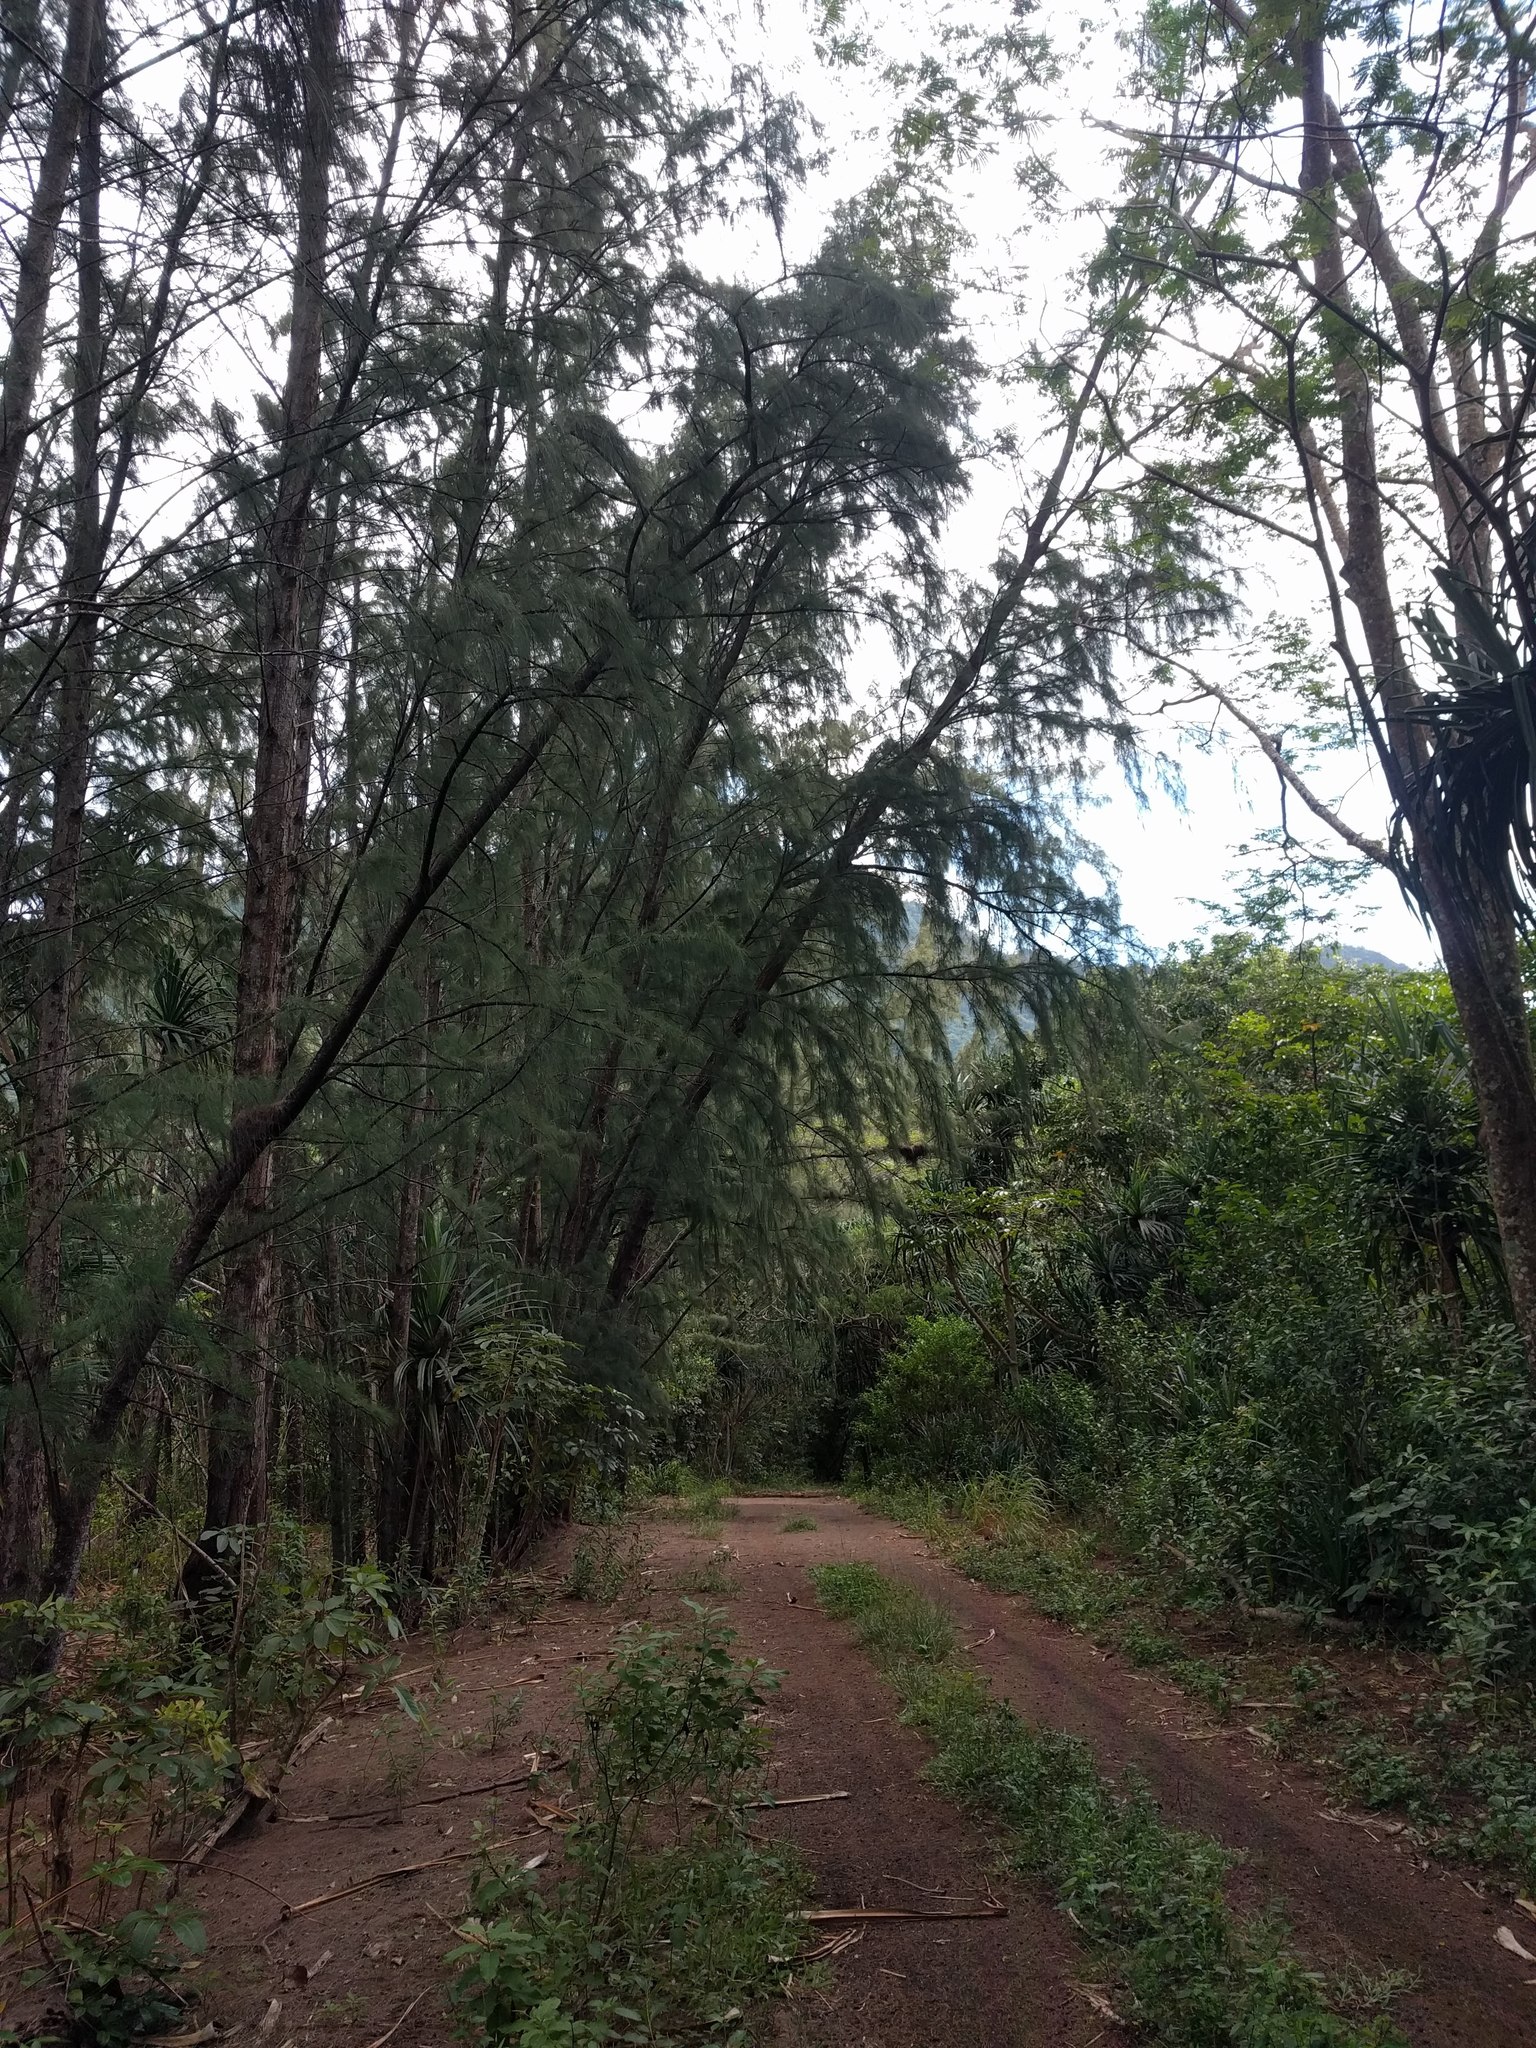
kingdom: Plantae
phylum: Tracheophyta
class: Magnoliopsida
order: Fagales
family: Casuarinaceae
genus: Casuarina
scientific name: Casuarina equisetifolia
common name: Beach sheoak
